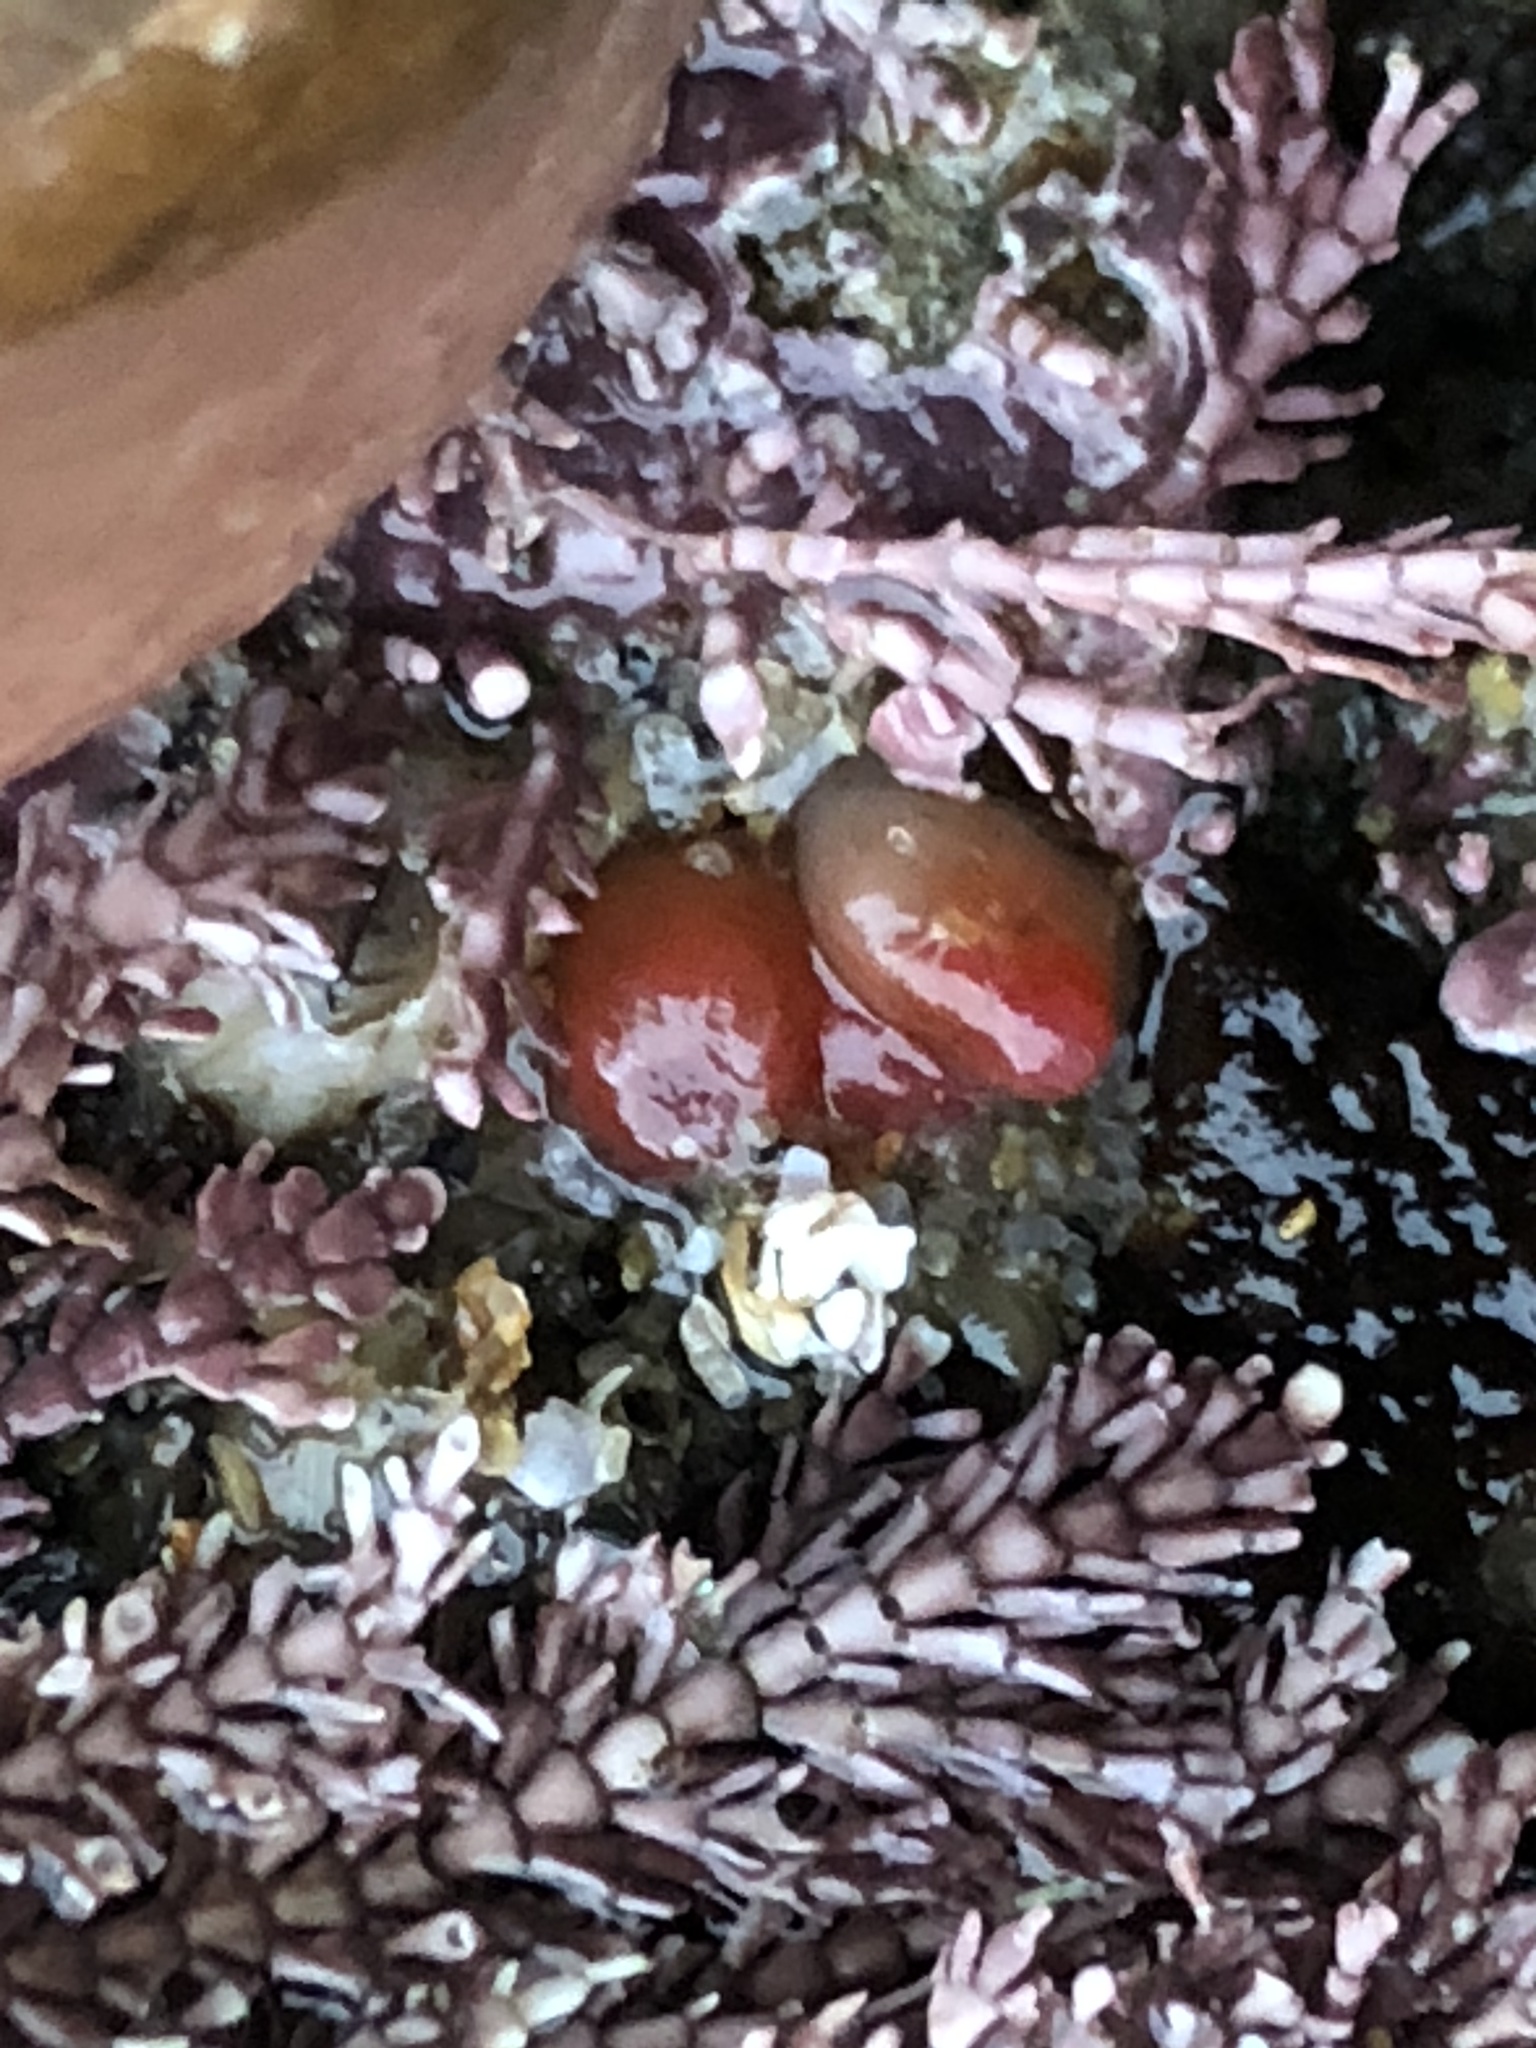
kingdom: Animalia
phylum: Mollusca
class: Bivalvia
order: Adapedonta
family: Hiatellidae
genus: Hiatella
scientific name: Hiatella arctica
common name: Arctic hiatella
